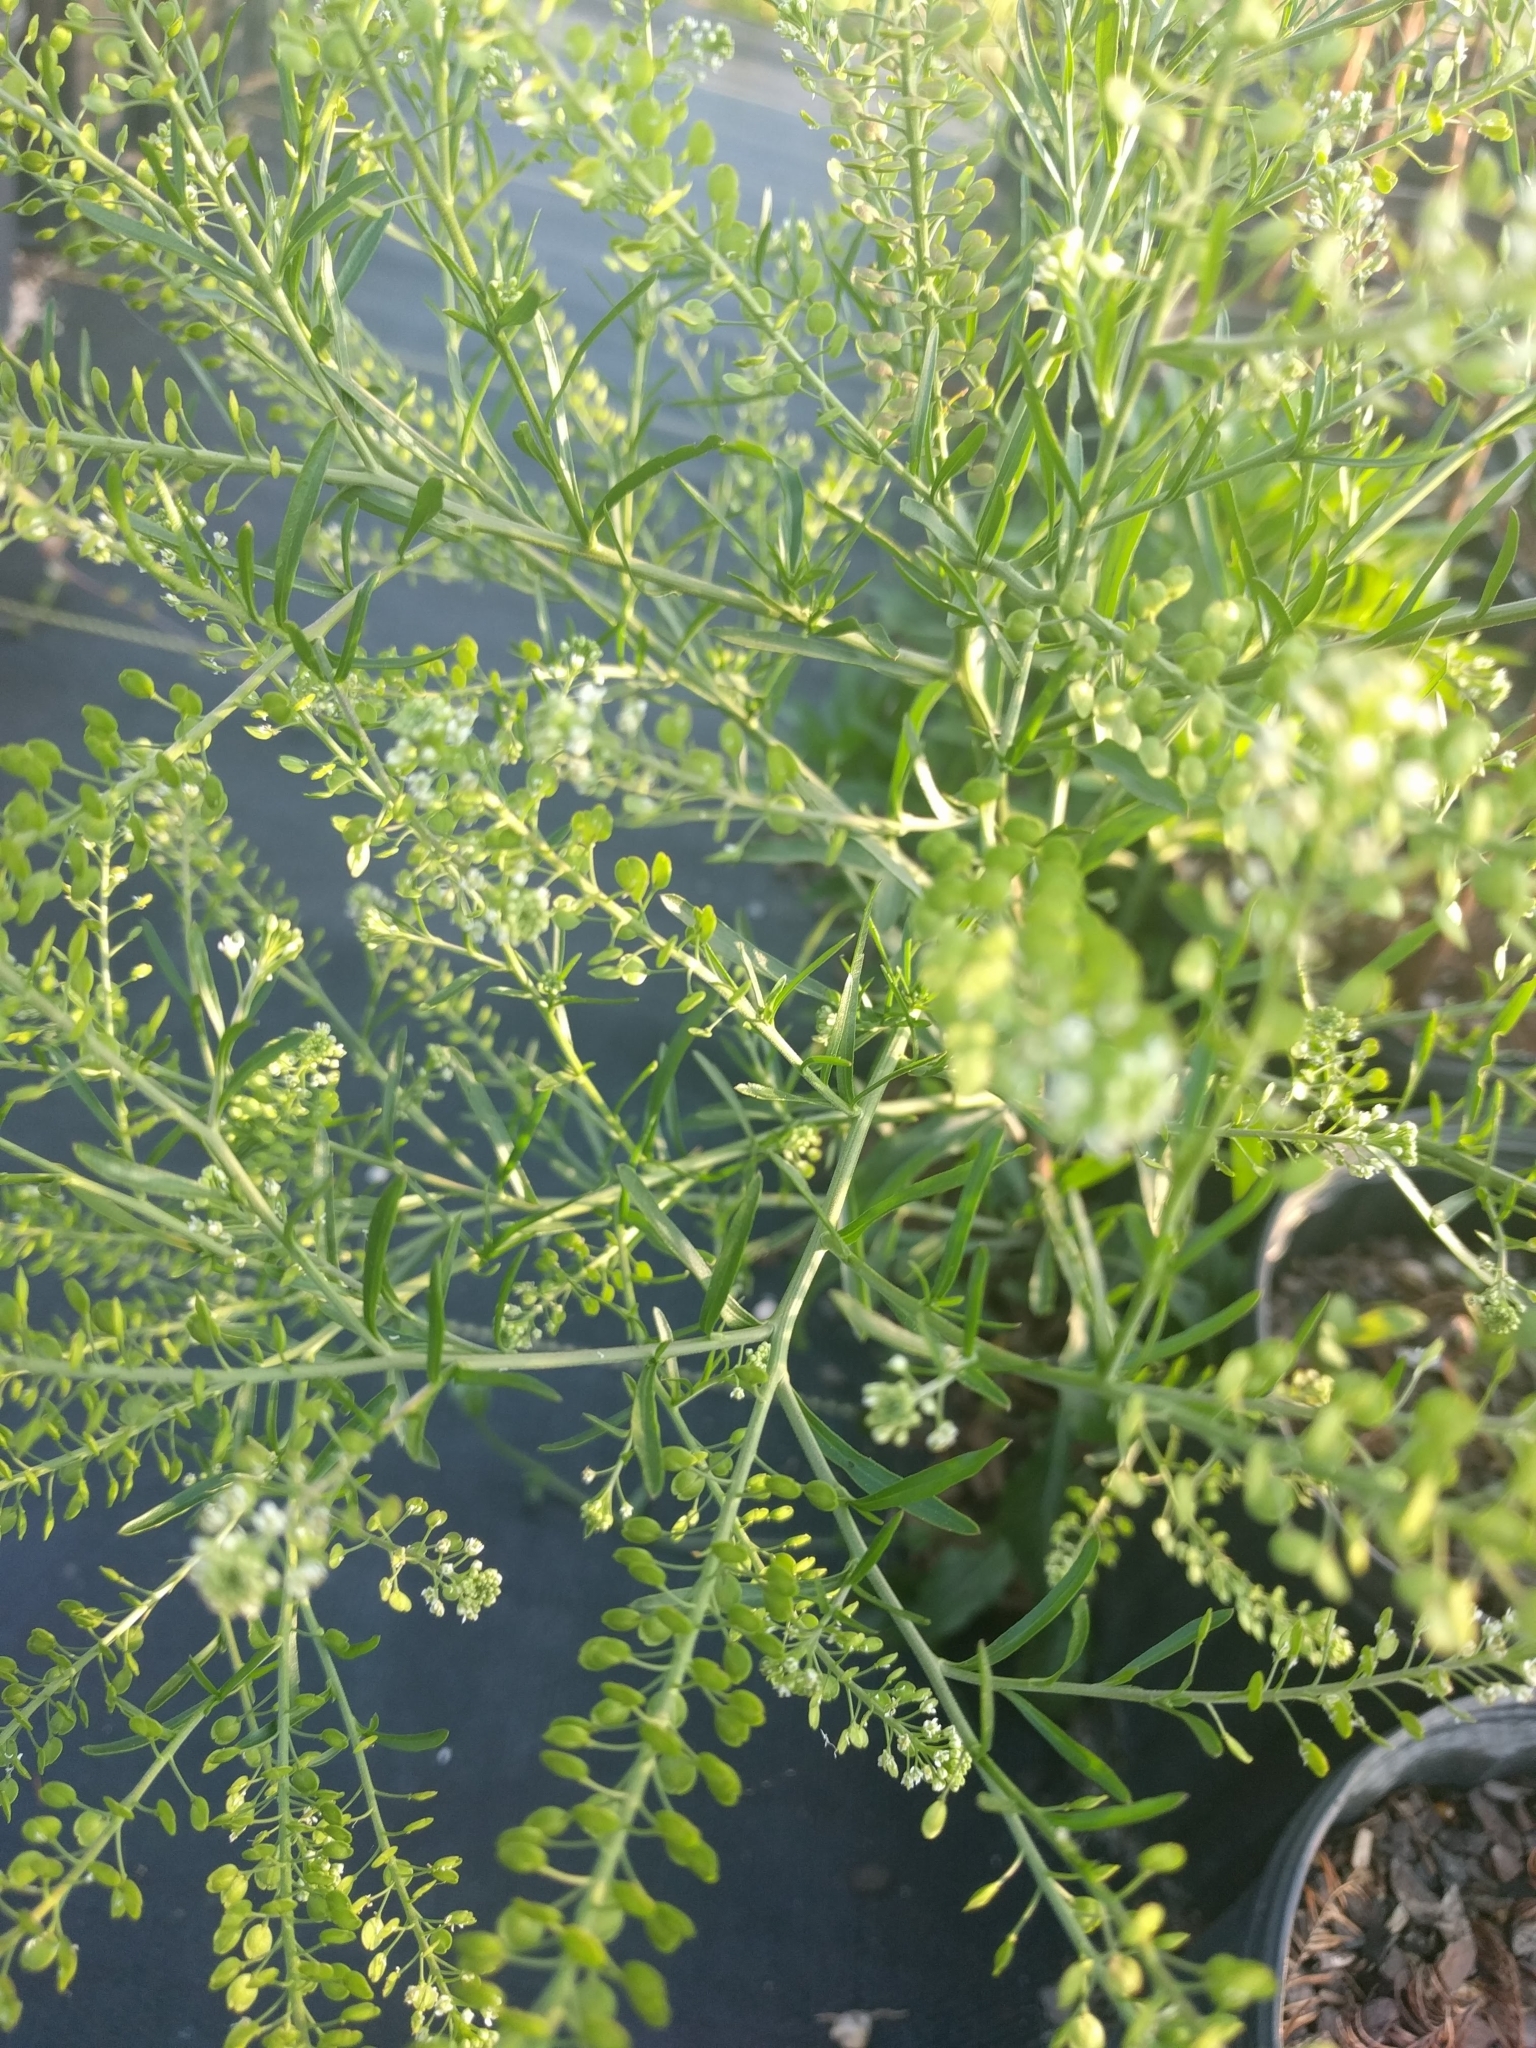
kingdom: Plantae
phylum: Tracheophyta
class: Magnoliopsida
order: Brassicales
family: Brassicaceae
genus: Lepidium
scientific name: Lepidium virginicum
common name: Least pepperwort
